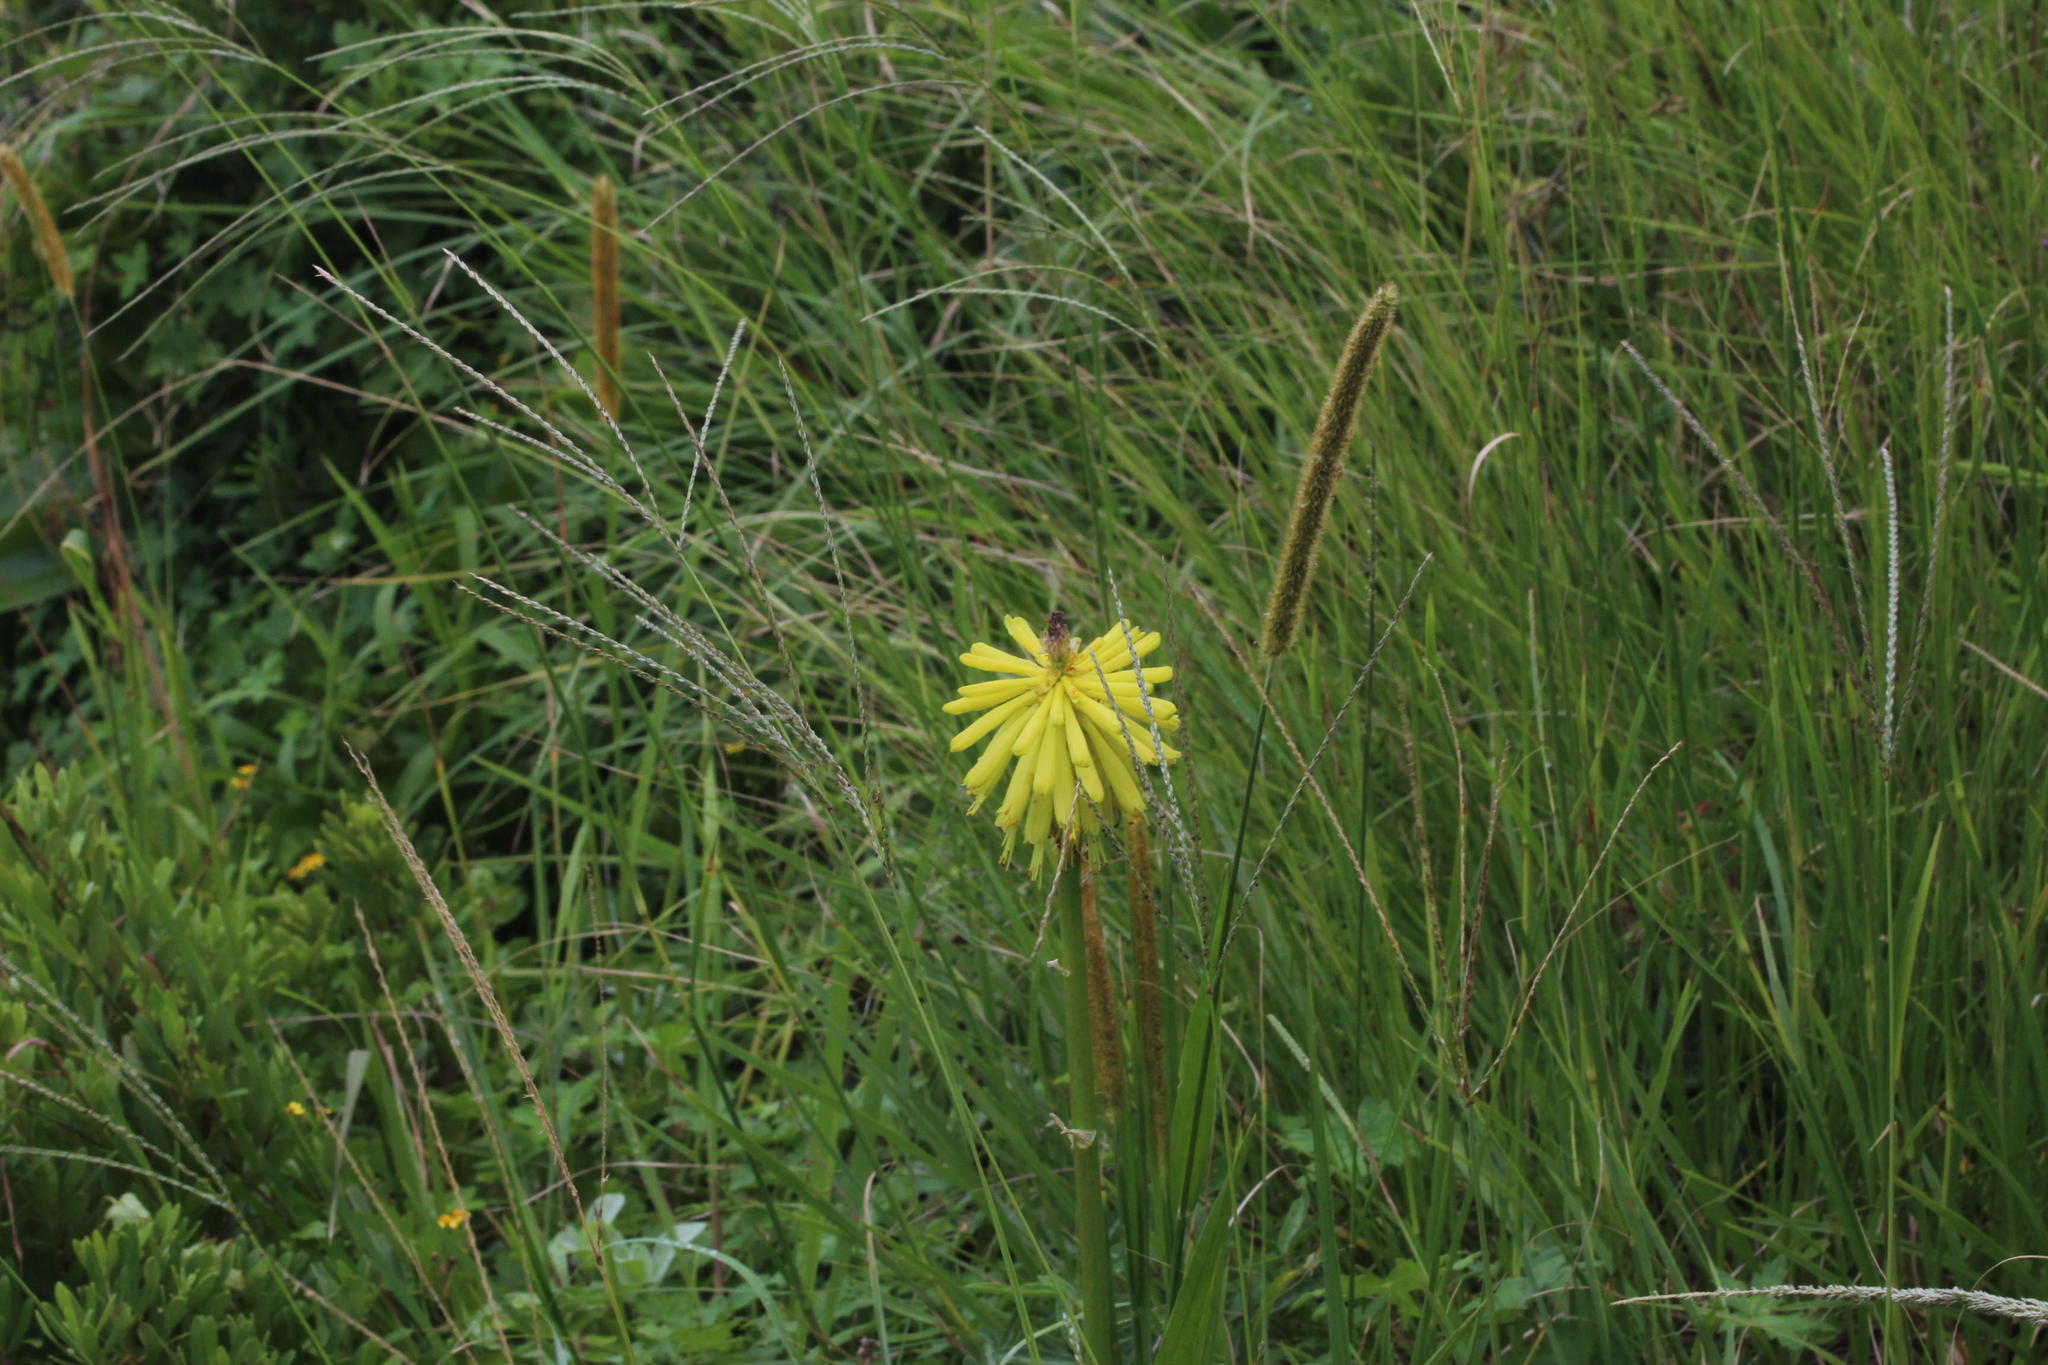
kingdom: Plantae
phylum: Tracheophyta
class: Liliopsida
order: Asparagales
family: Asphodelaceae
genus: Kniphofia
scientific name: Kniphofia coddiana
